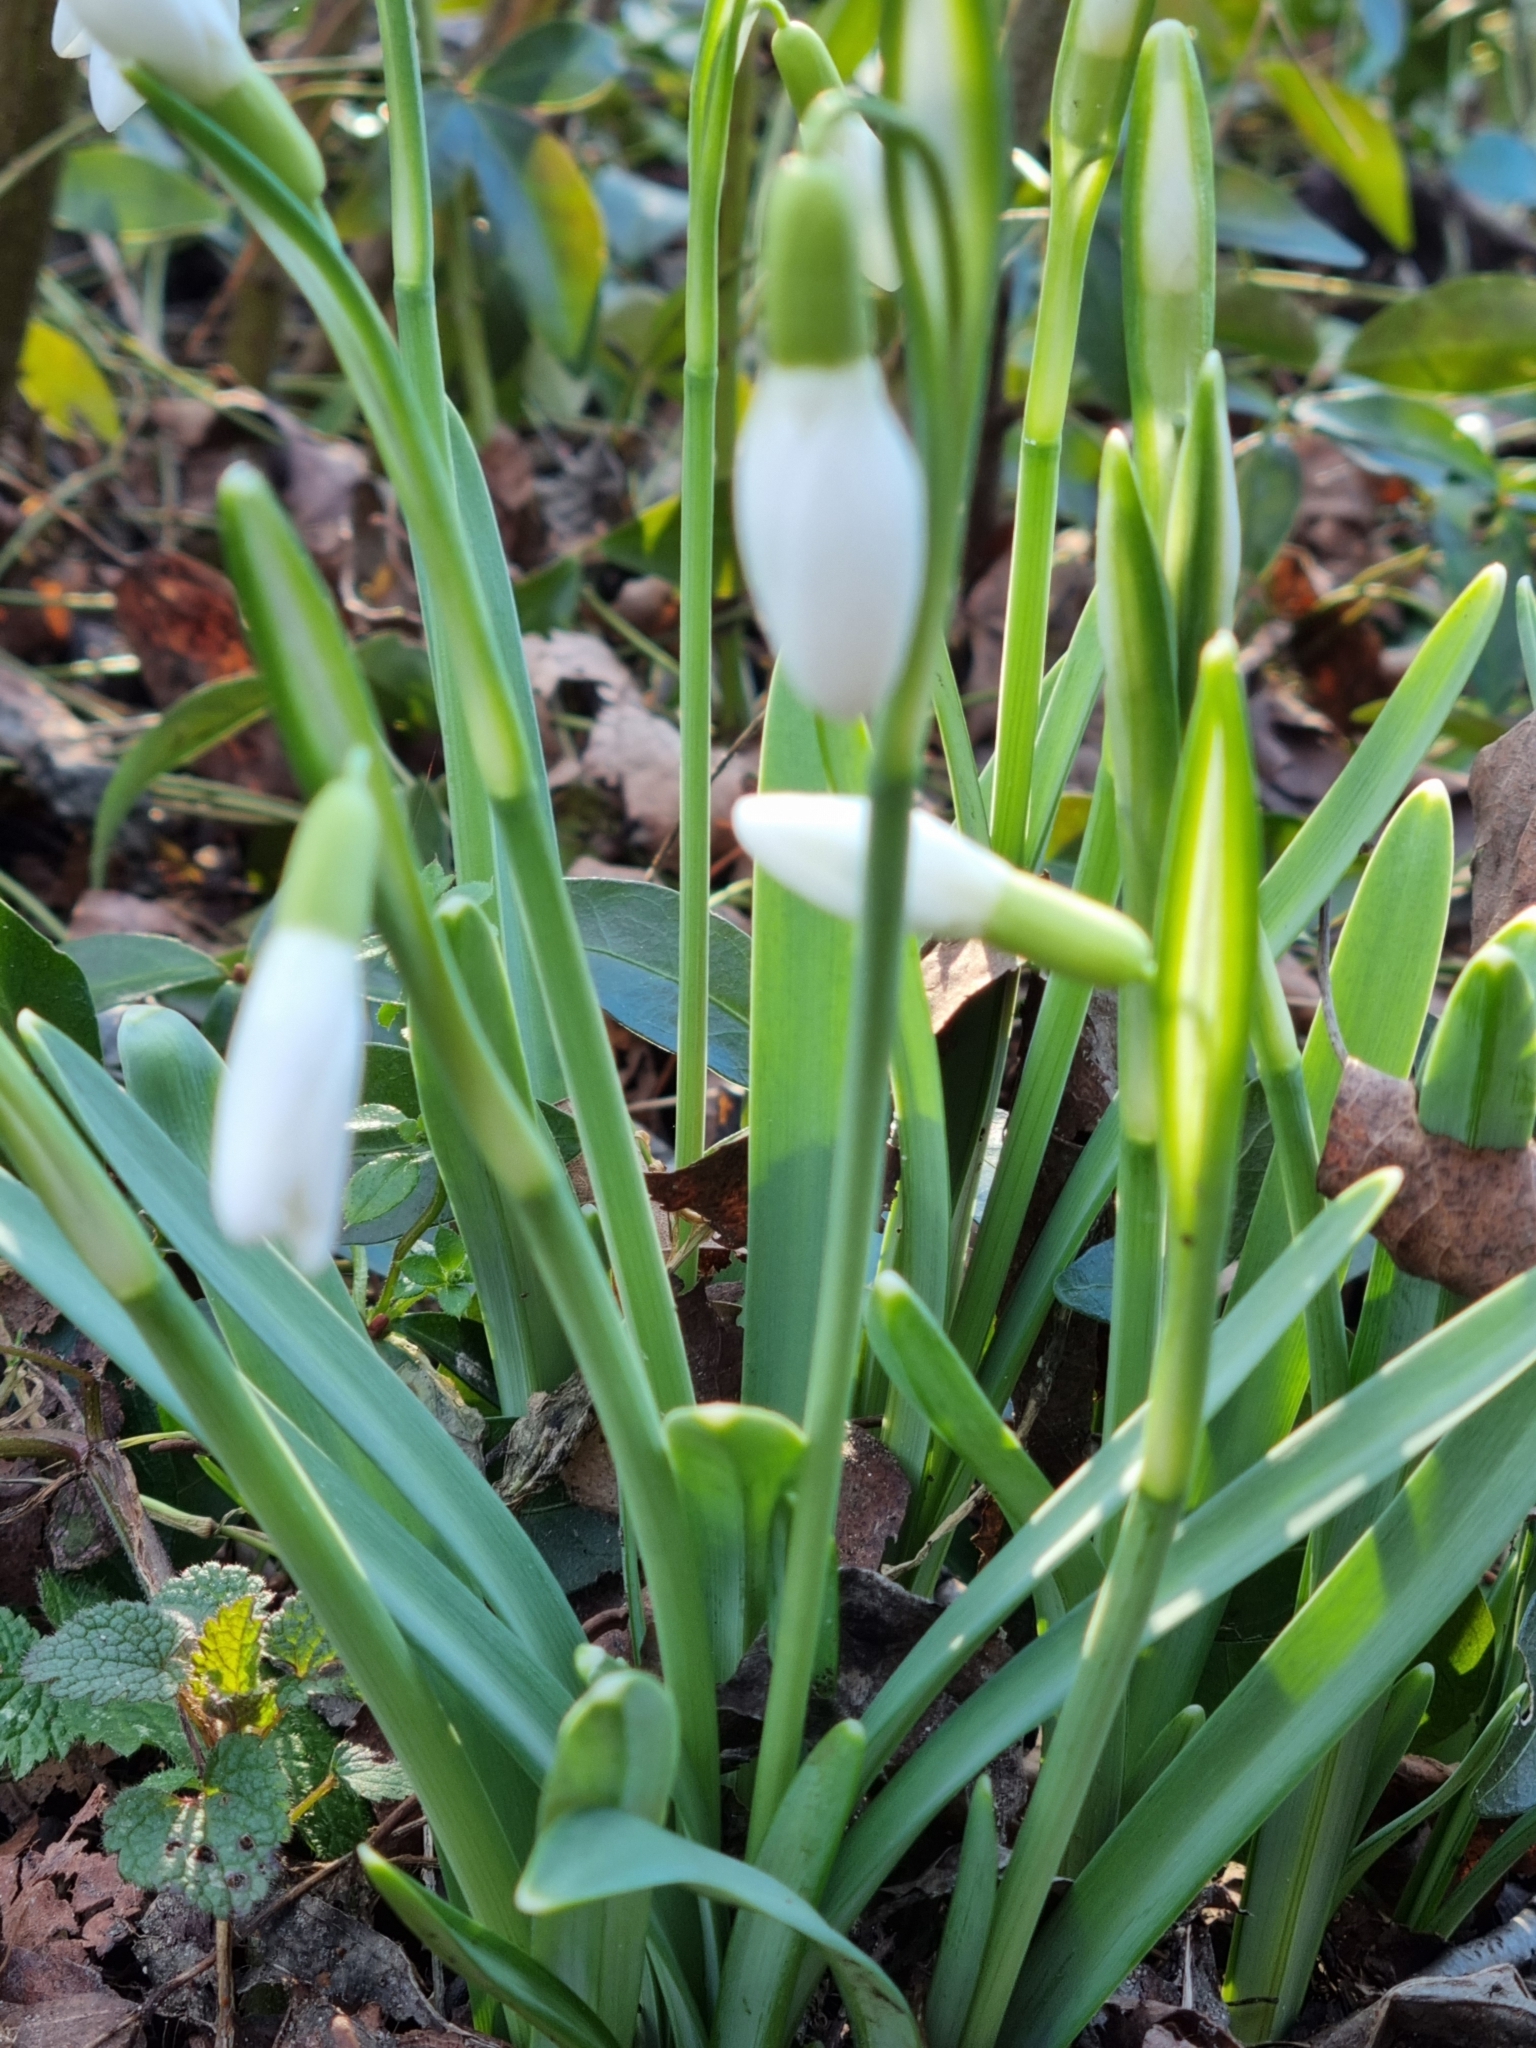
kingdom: Plantae
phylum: Tracheophyta
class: Liliopsida
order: Asparagales
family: Amaryllidaceae
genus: Galanthus
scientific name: Galanthus nivalis
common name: Snowdrop
